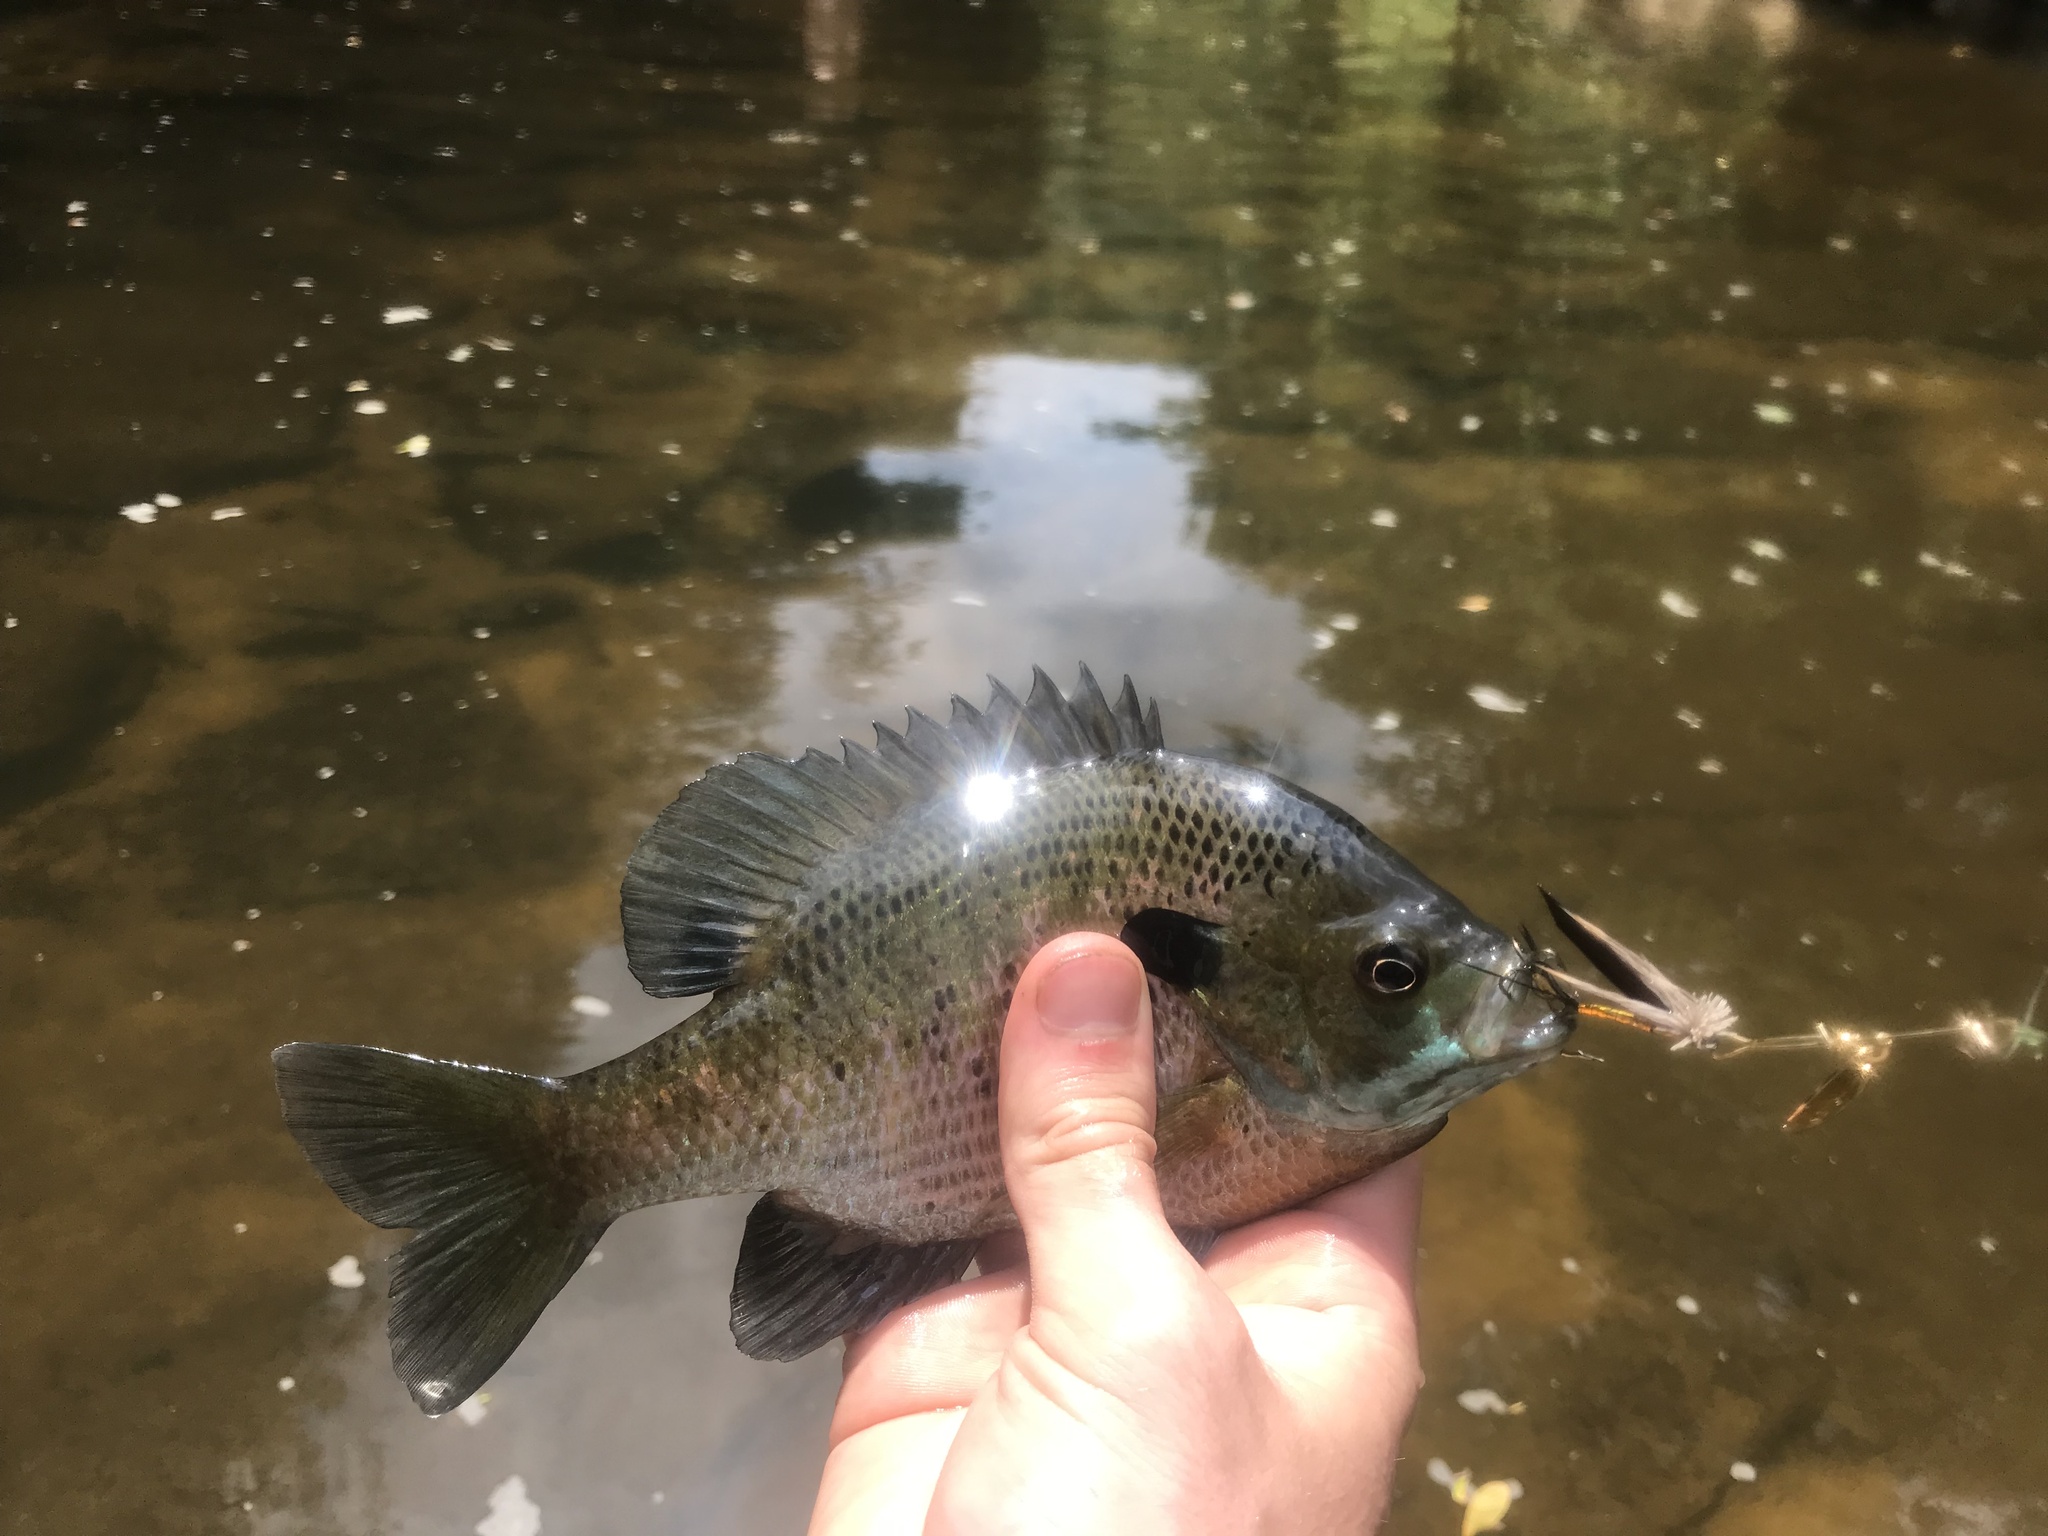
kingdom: Animalia
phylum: Chordata
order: Perciformes
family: Centrarchidae
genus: Lepomis
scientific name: Lepomis macrochirus
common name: Bluegill
